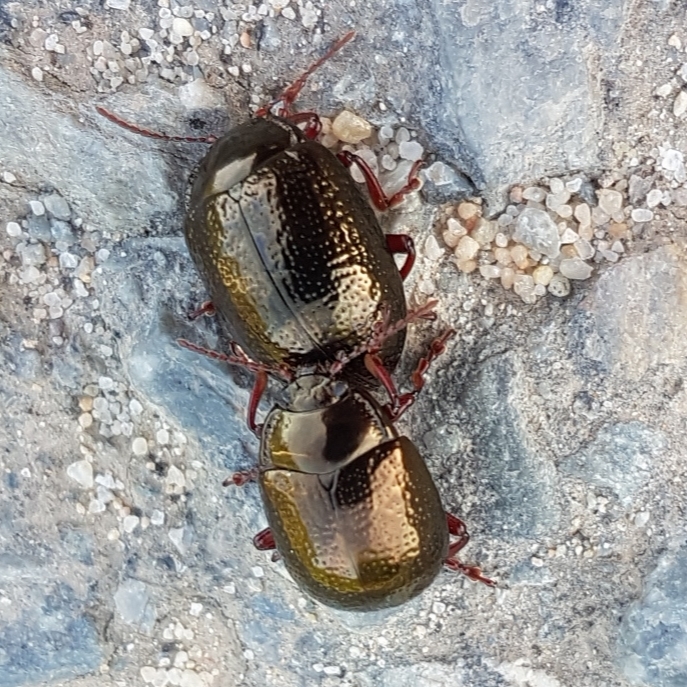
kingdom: Animalia
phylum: Arthropoda
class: Insecta
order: Coleoptera
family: Chrysomelidae
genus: Chrysolina
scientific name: Chrysolina bankii
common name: Leaf beetle
